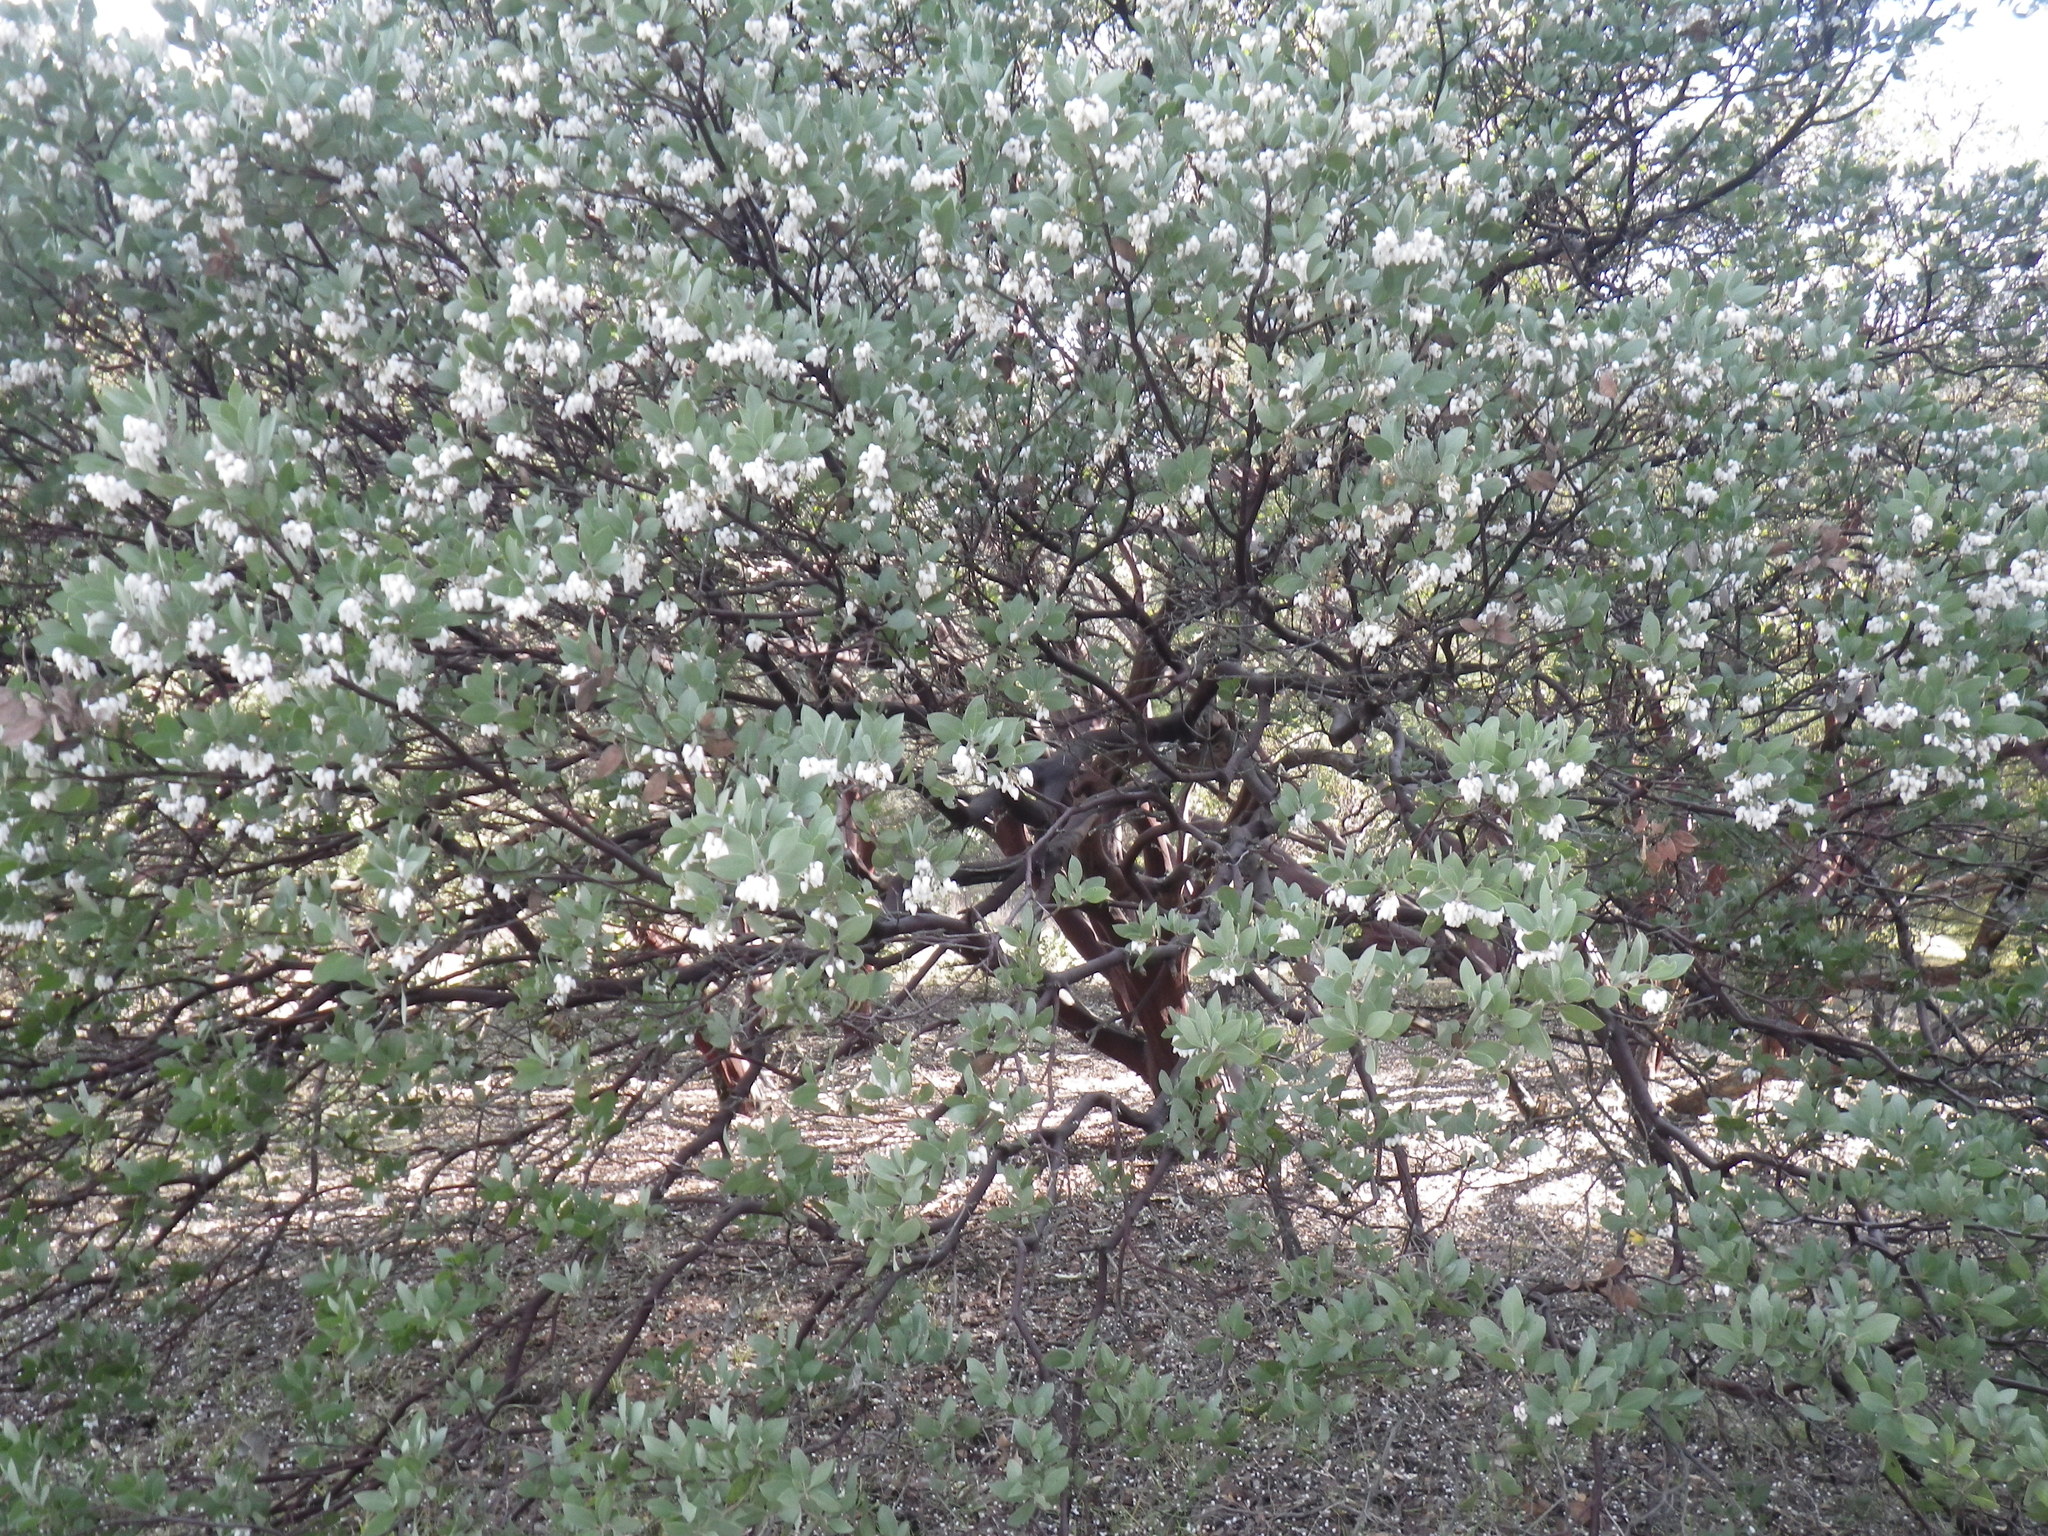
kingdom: Plantae
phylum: Tracheophyta
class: Magnoliopsida
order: Ericales
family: Ericaceae
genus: Arctostaphylos
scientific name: Arctostaphylos manzanita
